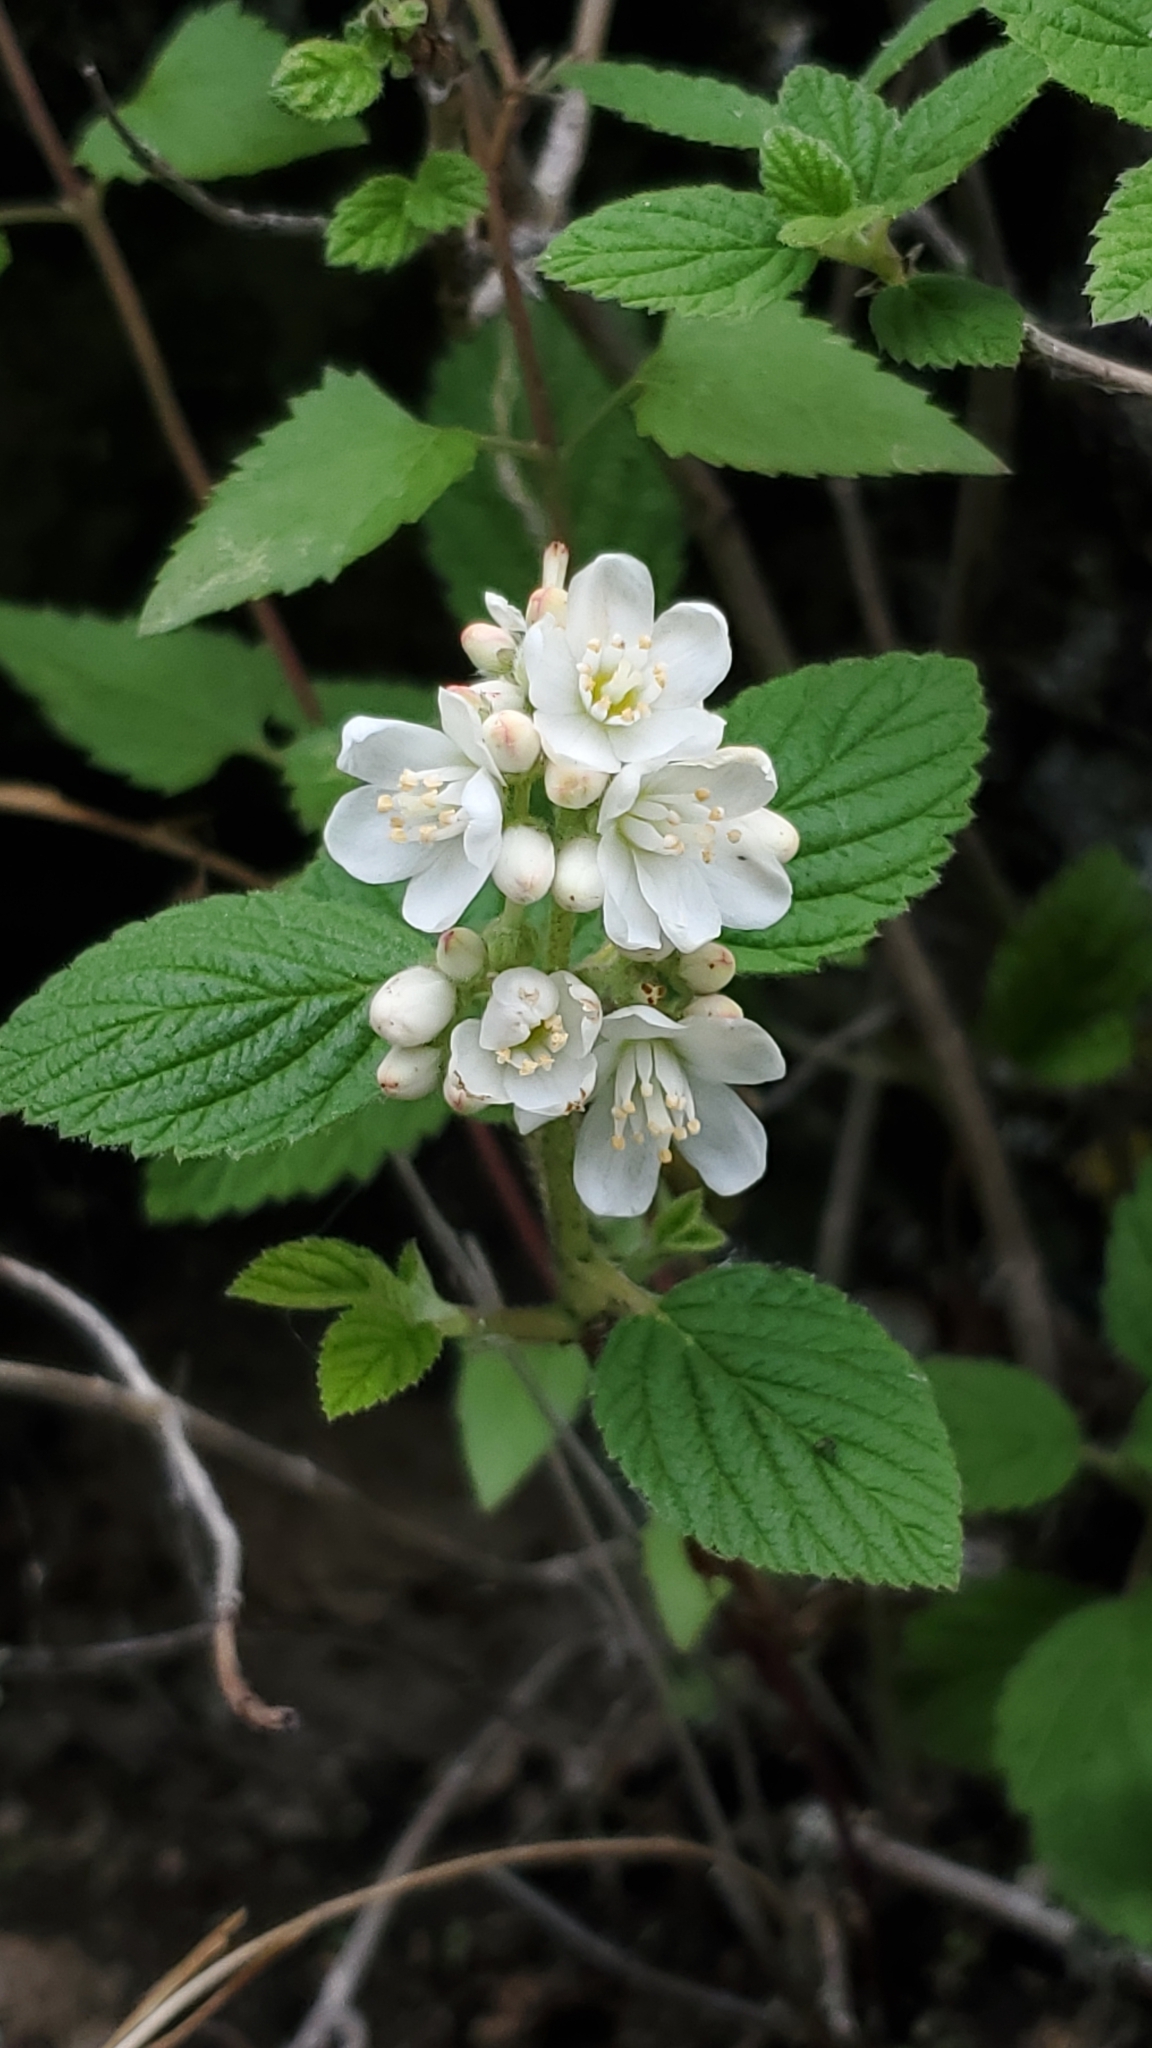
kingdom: Plantae
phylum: Tracheophyta
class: Magnoliopsida
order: Cornales
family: Hydrangeaceae
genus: Jamesia
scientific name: Jamesia americana
